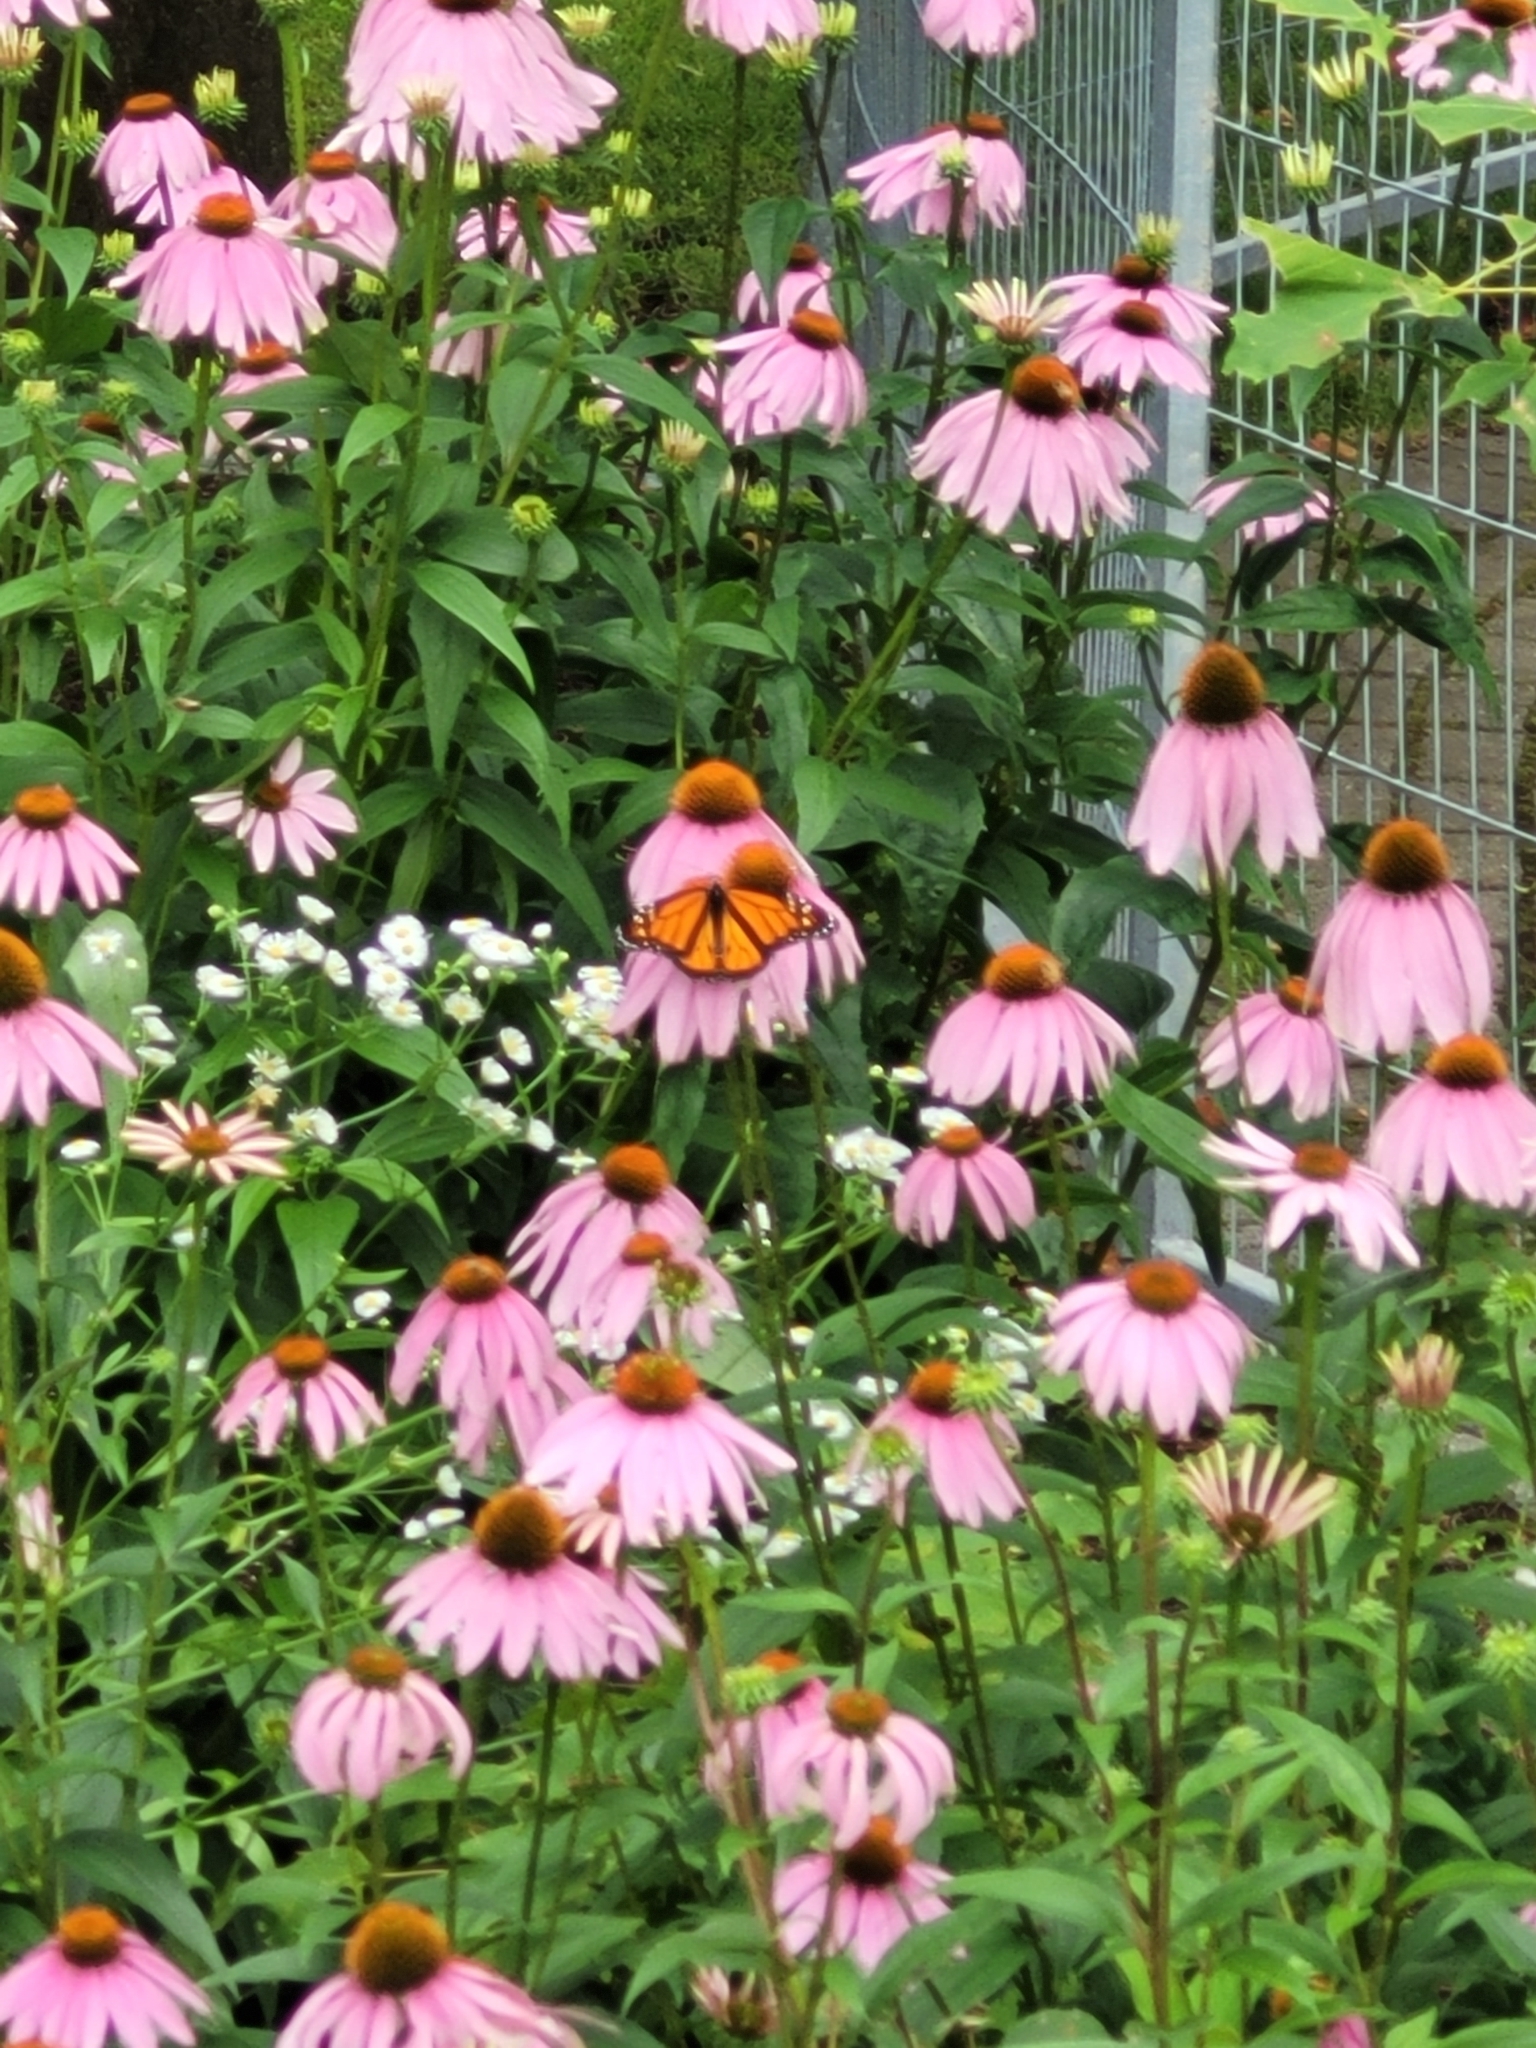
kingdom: Animalia
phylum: Arthropoda
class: Insecta
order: Lepidoptera
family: Nymphalidae
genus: Danaus
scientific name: Danaus plexippus
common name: Monarch
